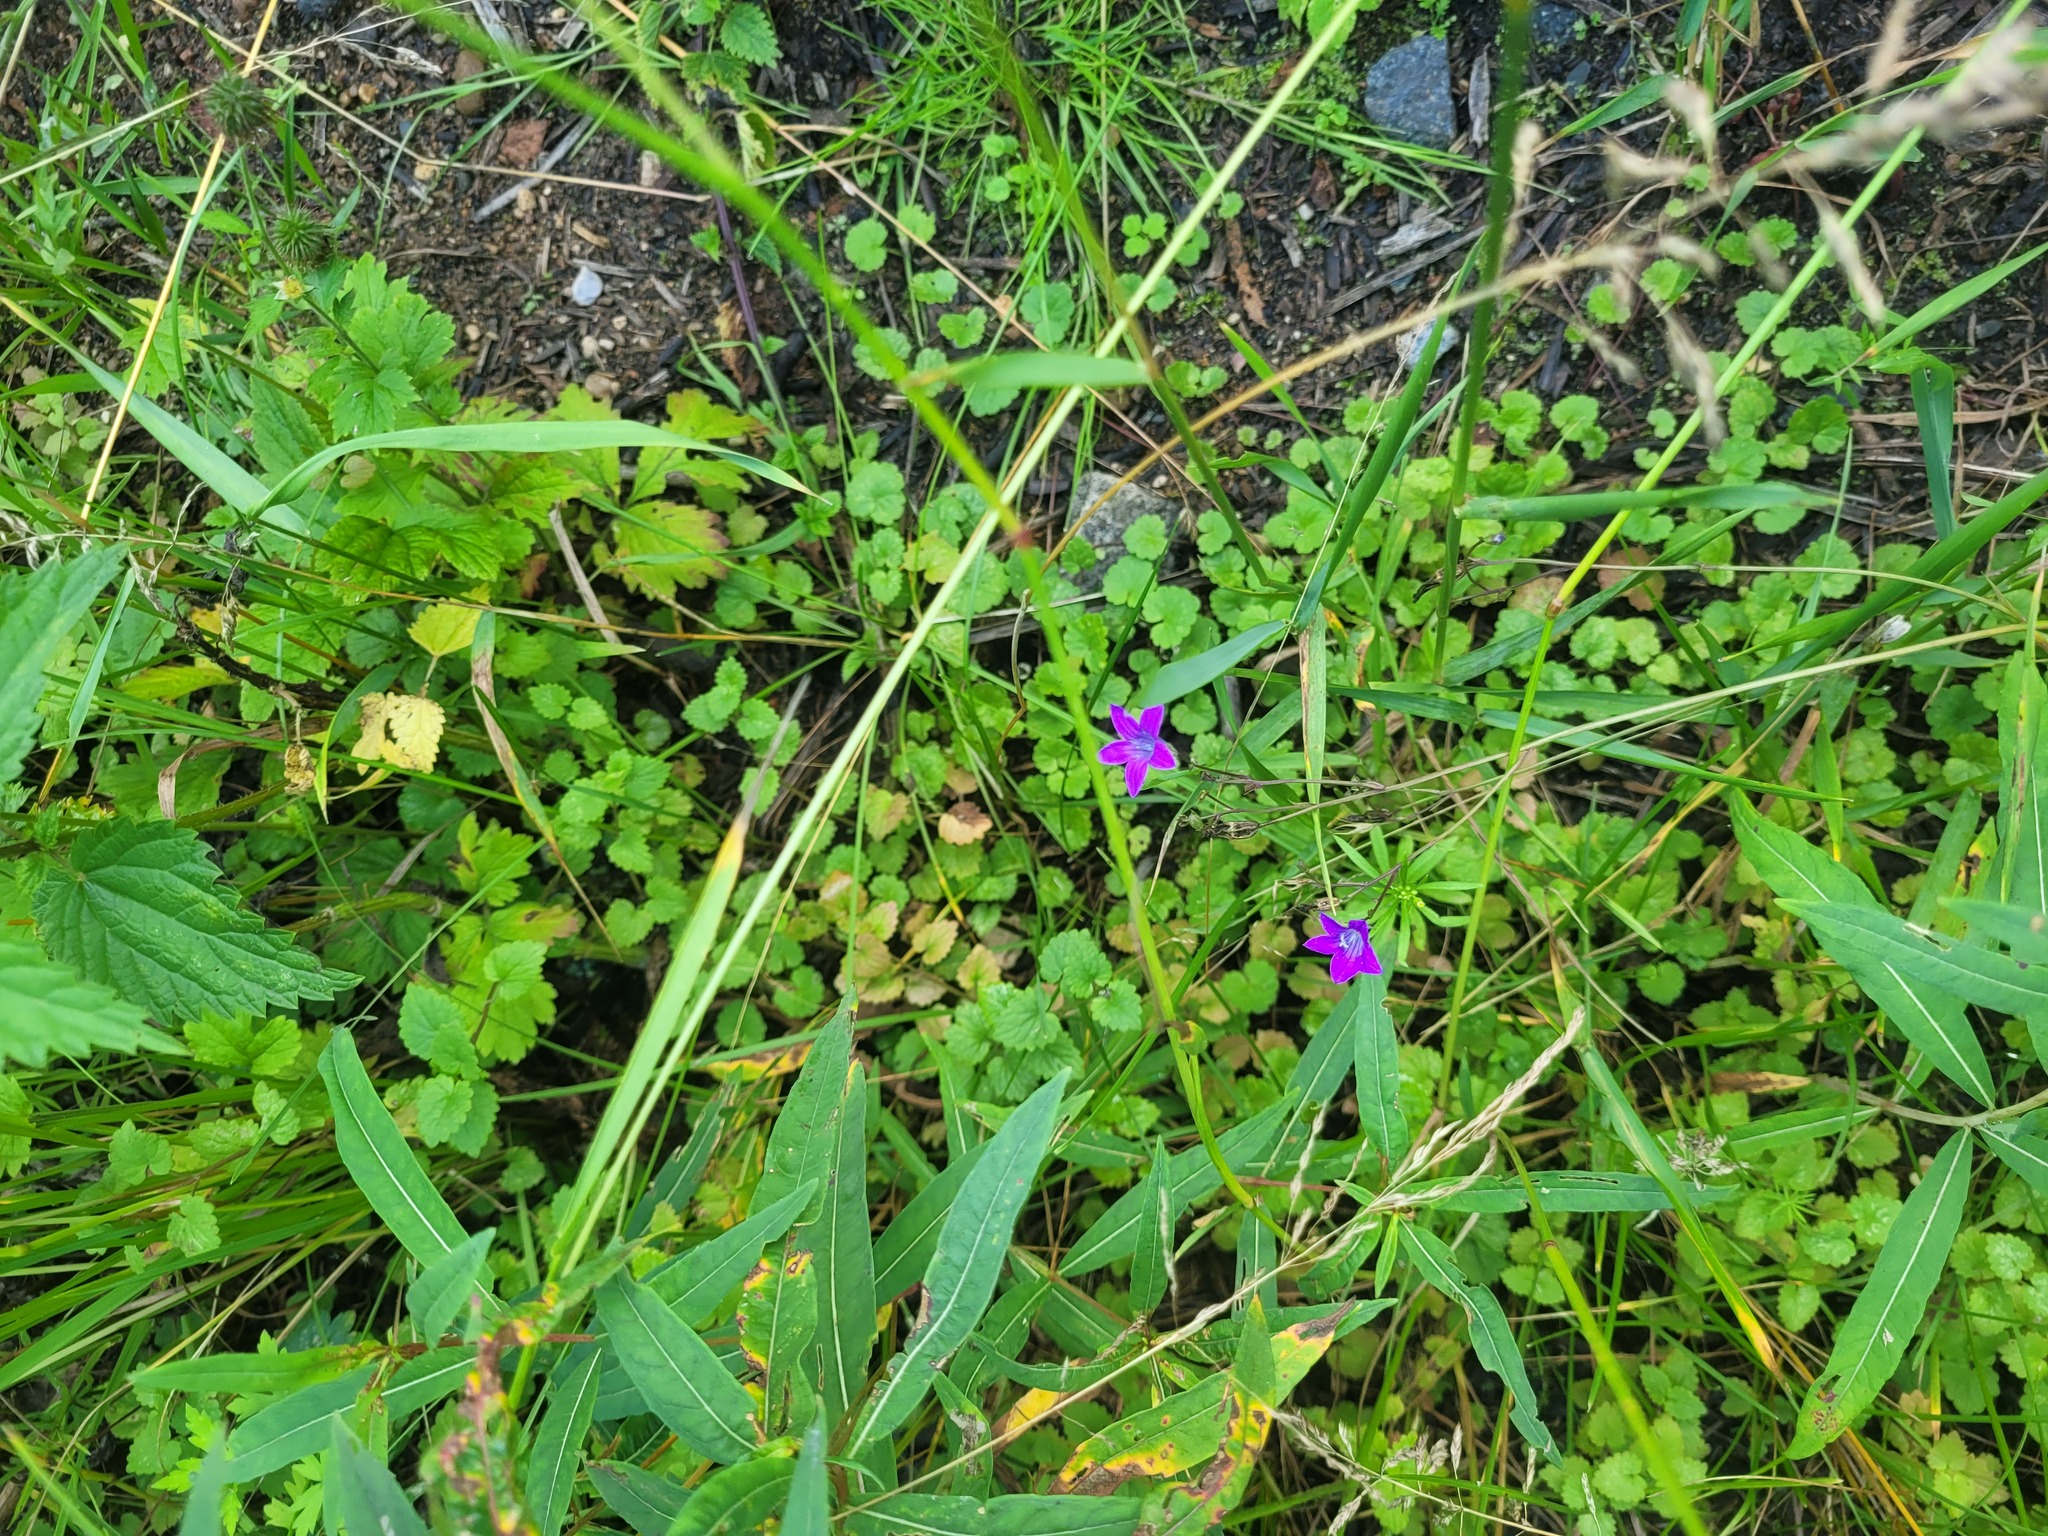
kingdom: Plantae
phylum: Tracheophyta
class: Magnoliopsida
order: Asterales
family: Campanulaceae
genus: Campanula
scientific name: Campanula patula
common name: Spreading bellflower
